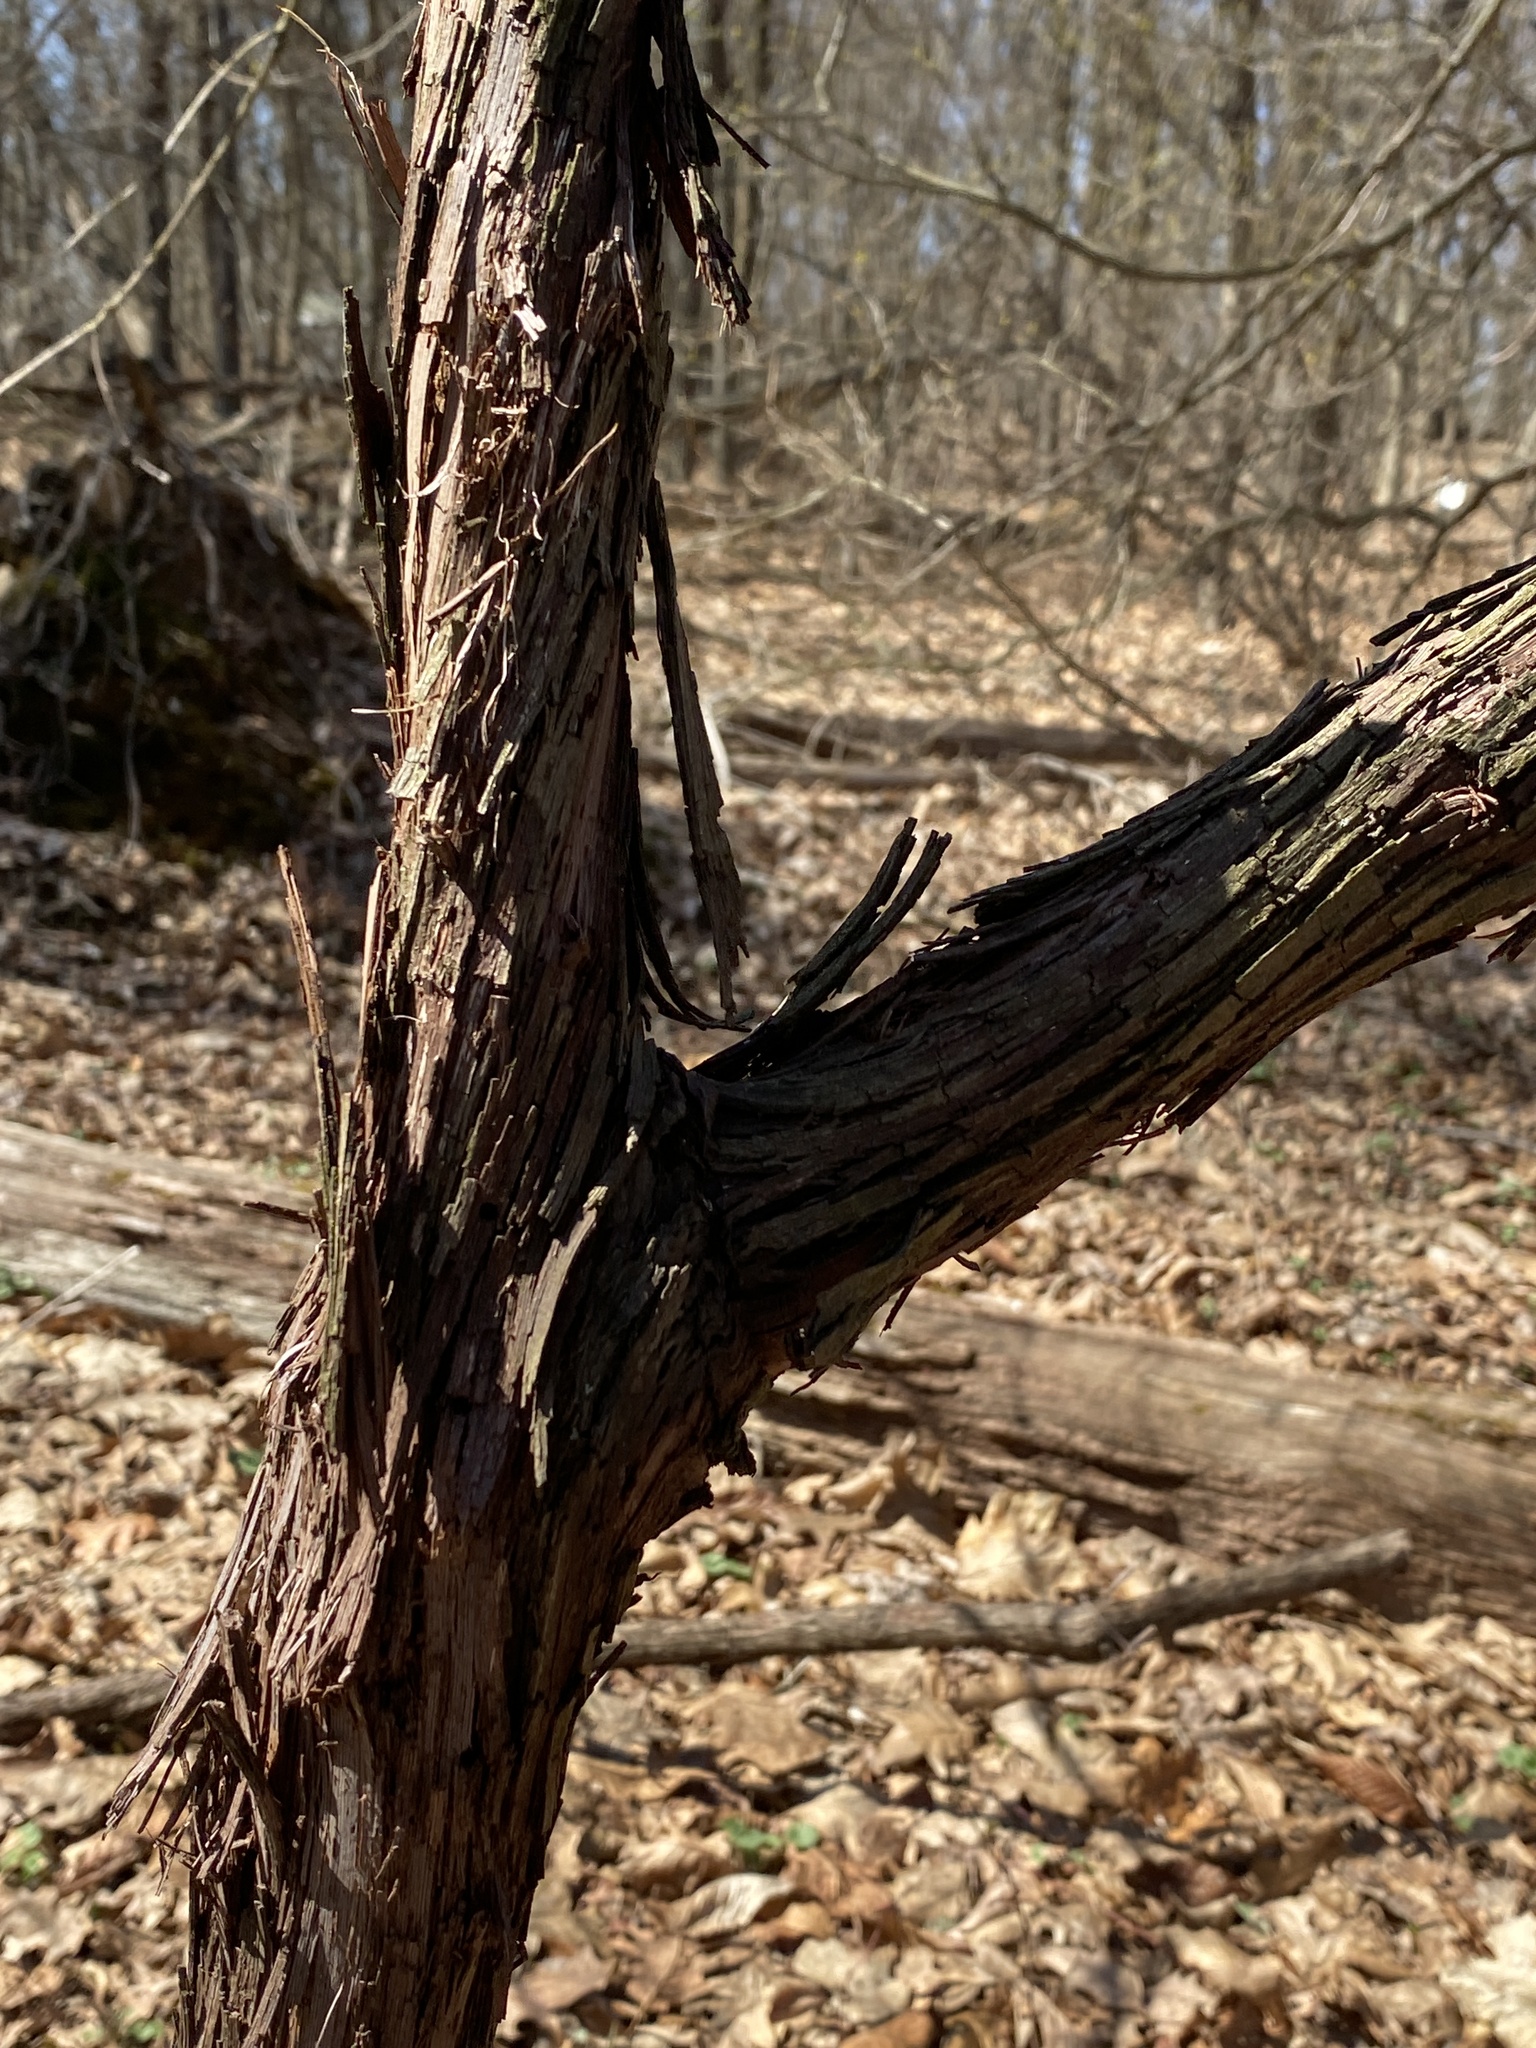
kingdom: Plantae
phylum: Tracheophyta
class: Magnoliopsida
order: Vitales
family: Vitaceae
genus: Vitis
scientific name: Vitis
